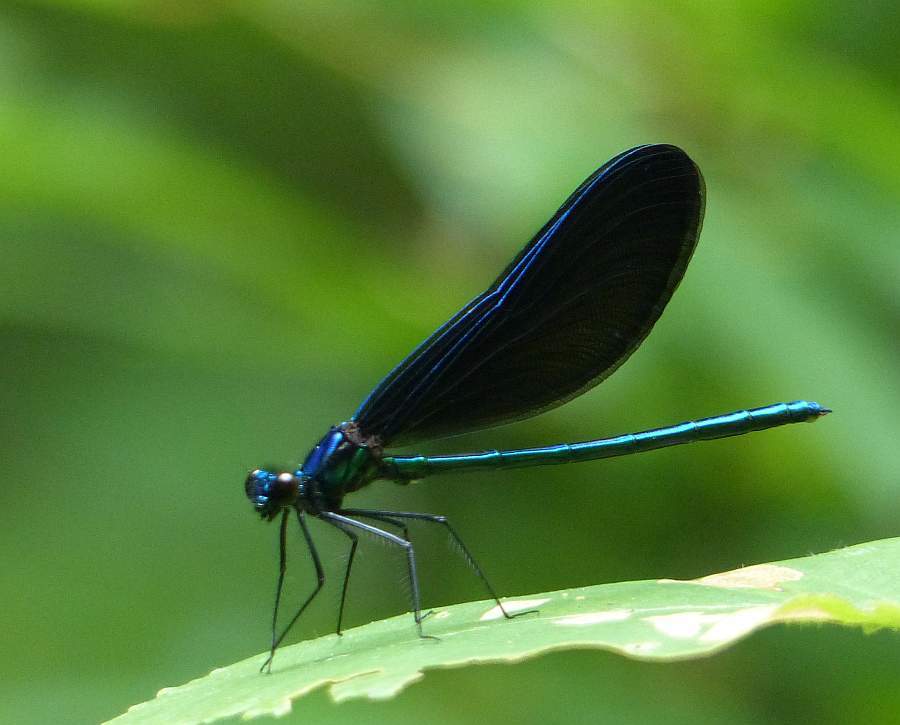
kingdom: Animalia
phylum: Arthropoda
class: Insecta
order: Odonata
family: Calopterygidae
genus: Calopteryx
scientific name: Calopteryx maculata
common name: Ebony jewelwing
